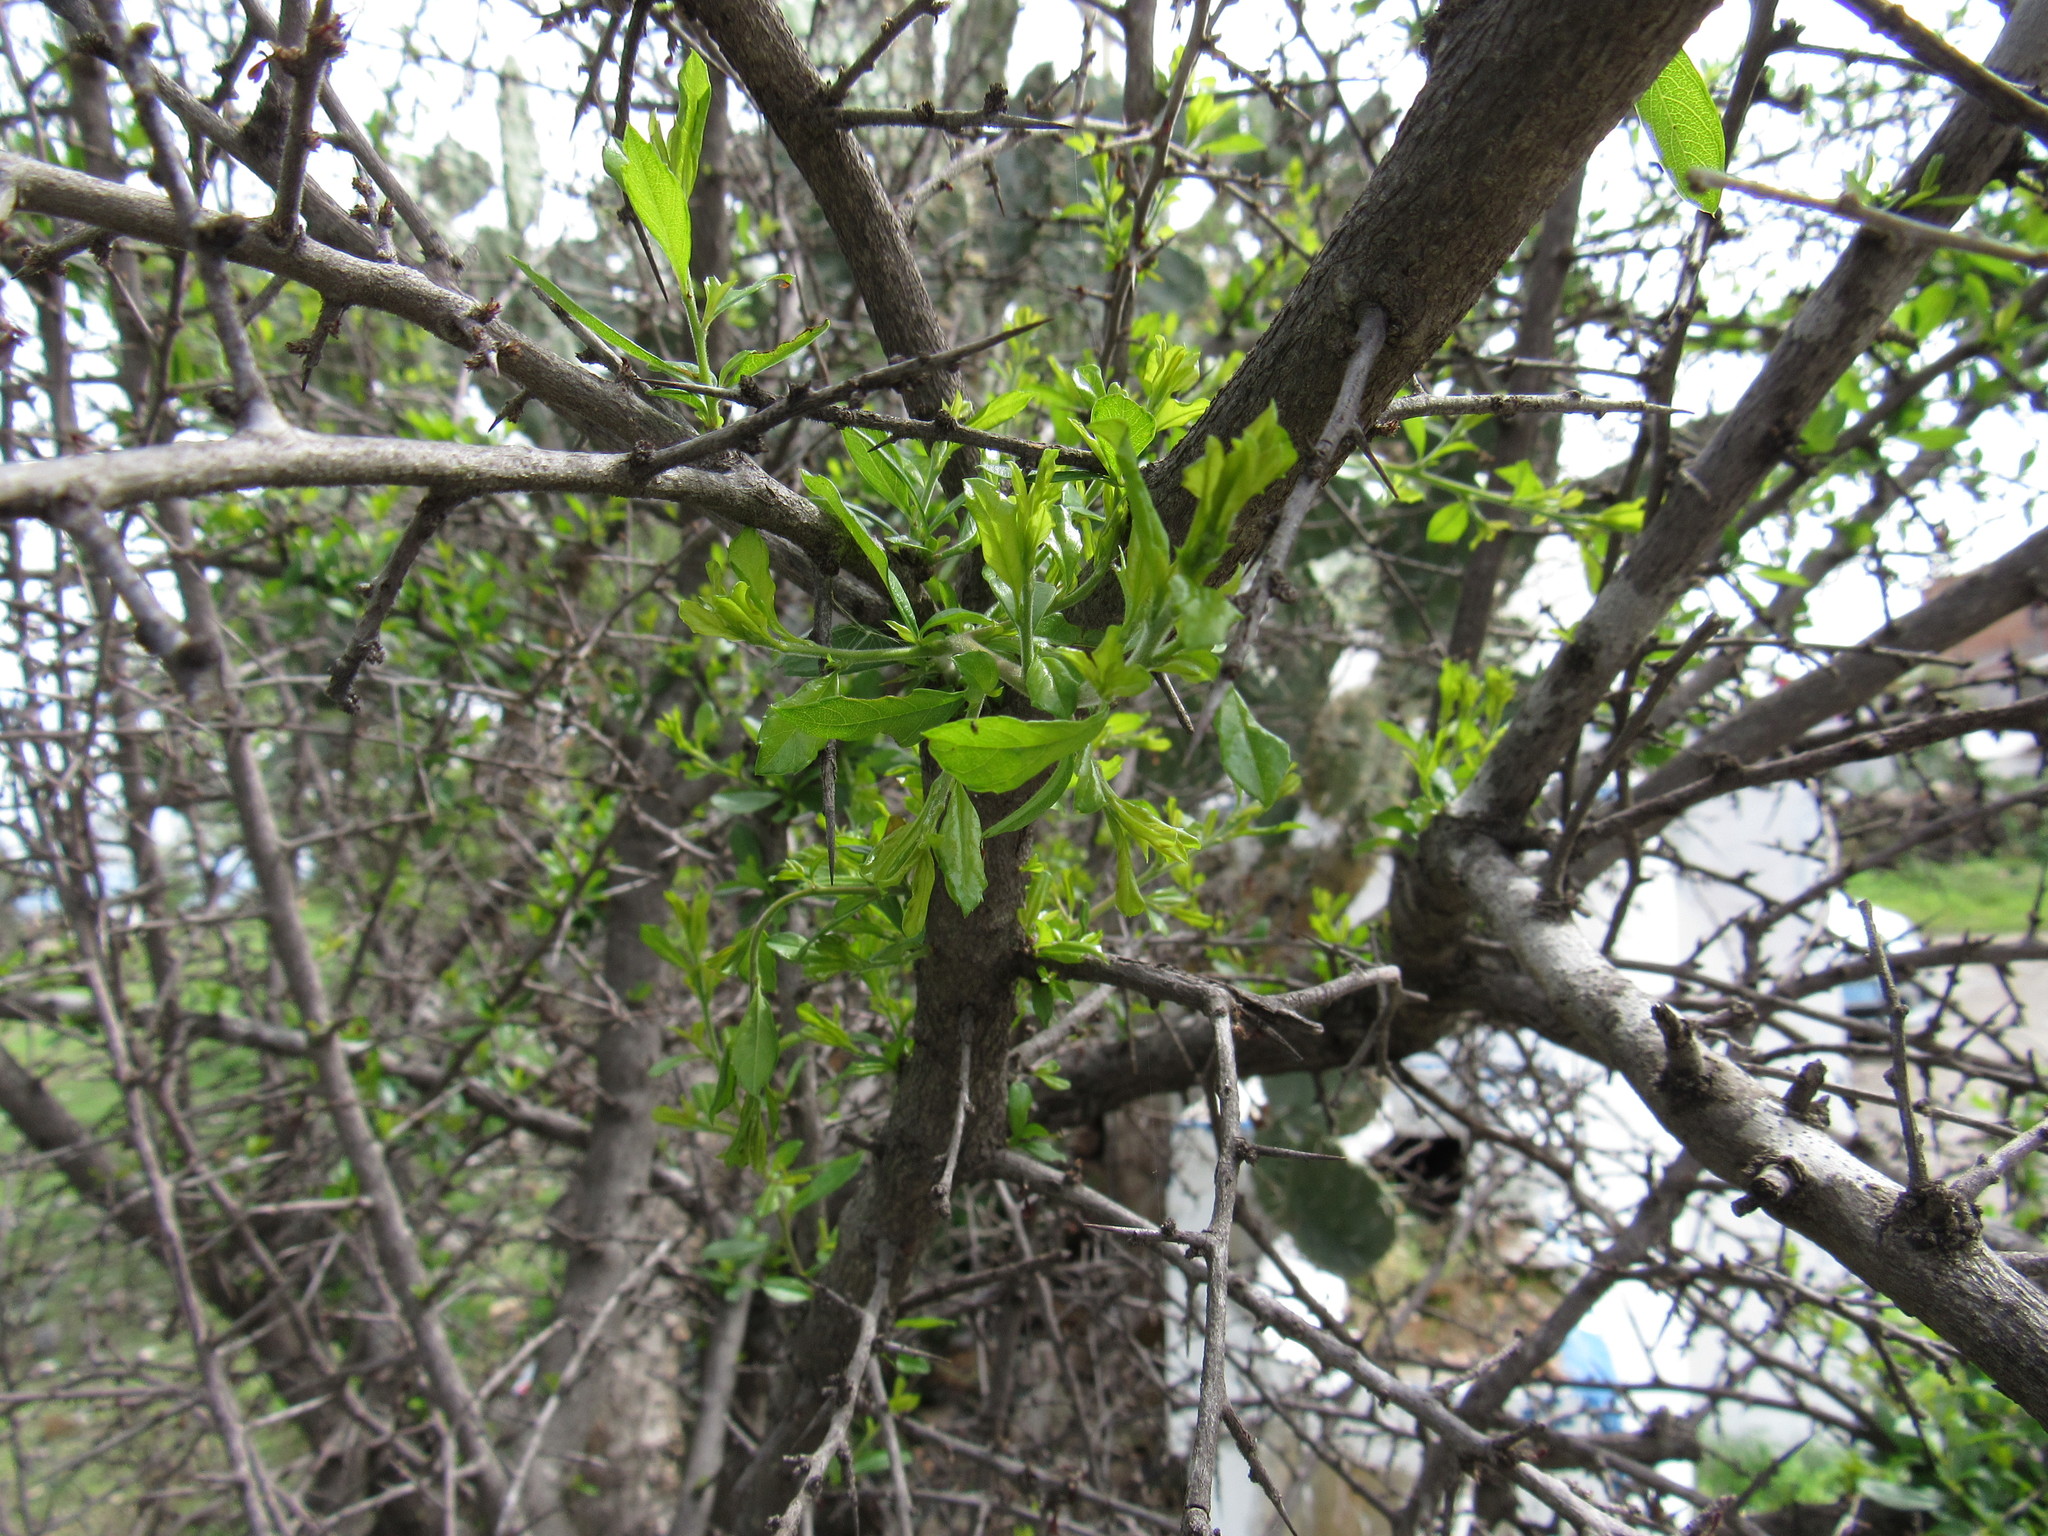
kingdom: Plantae
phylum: Tracheophyta
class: Magnoliopsida
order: Rosales
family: Cannabaceae
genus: Celtis
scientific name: Celtis pallida
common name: Desert hackberry
